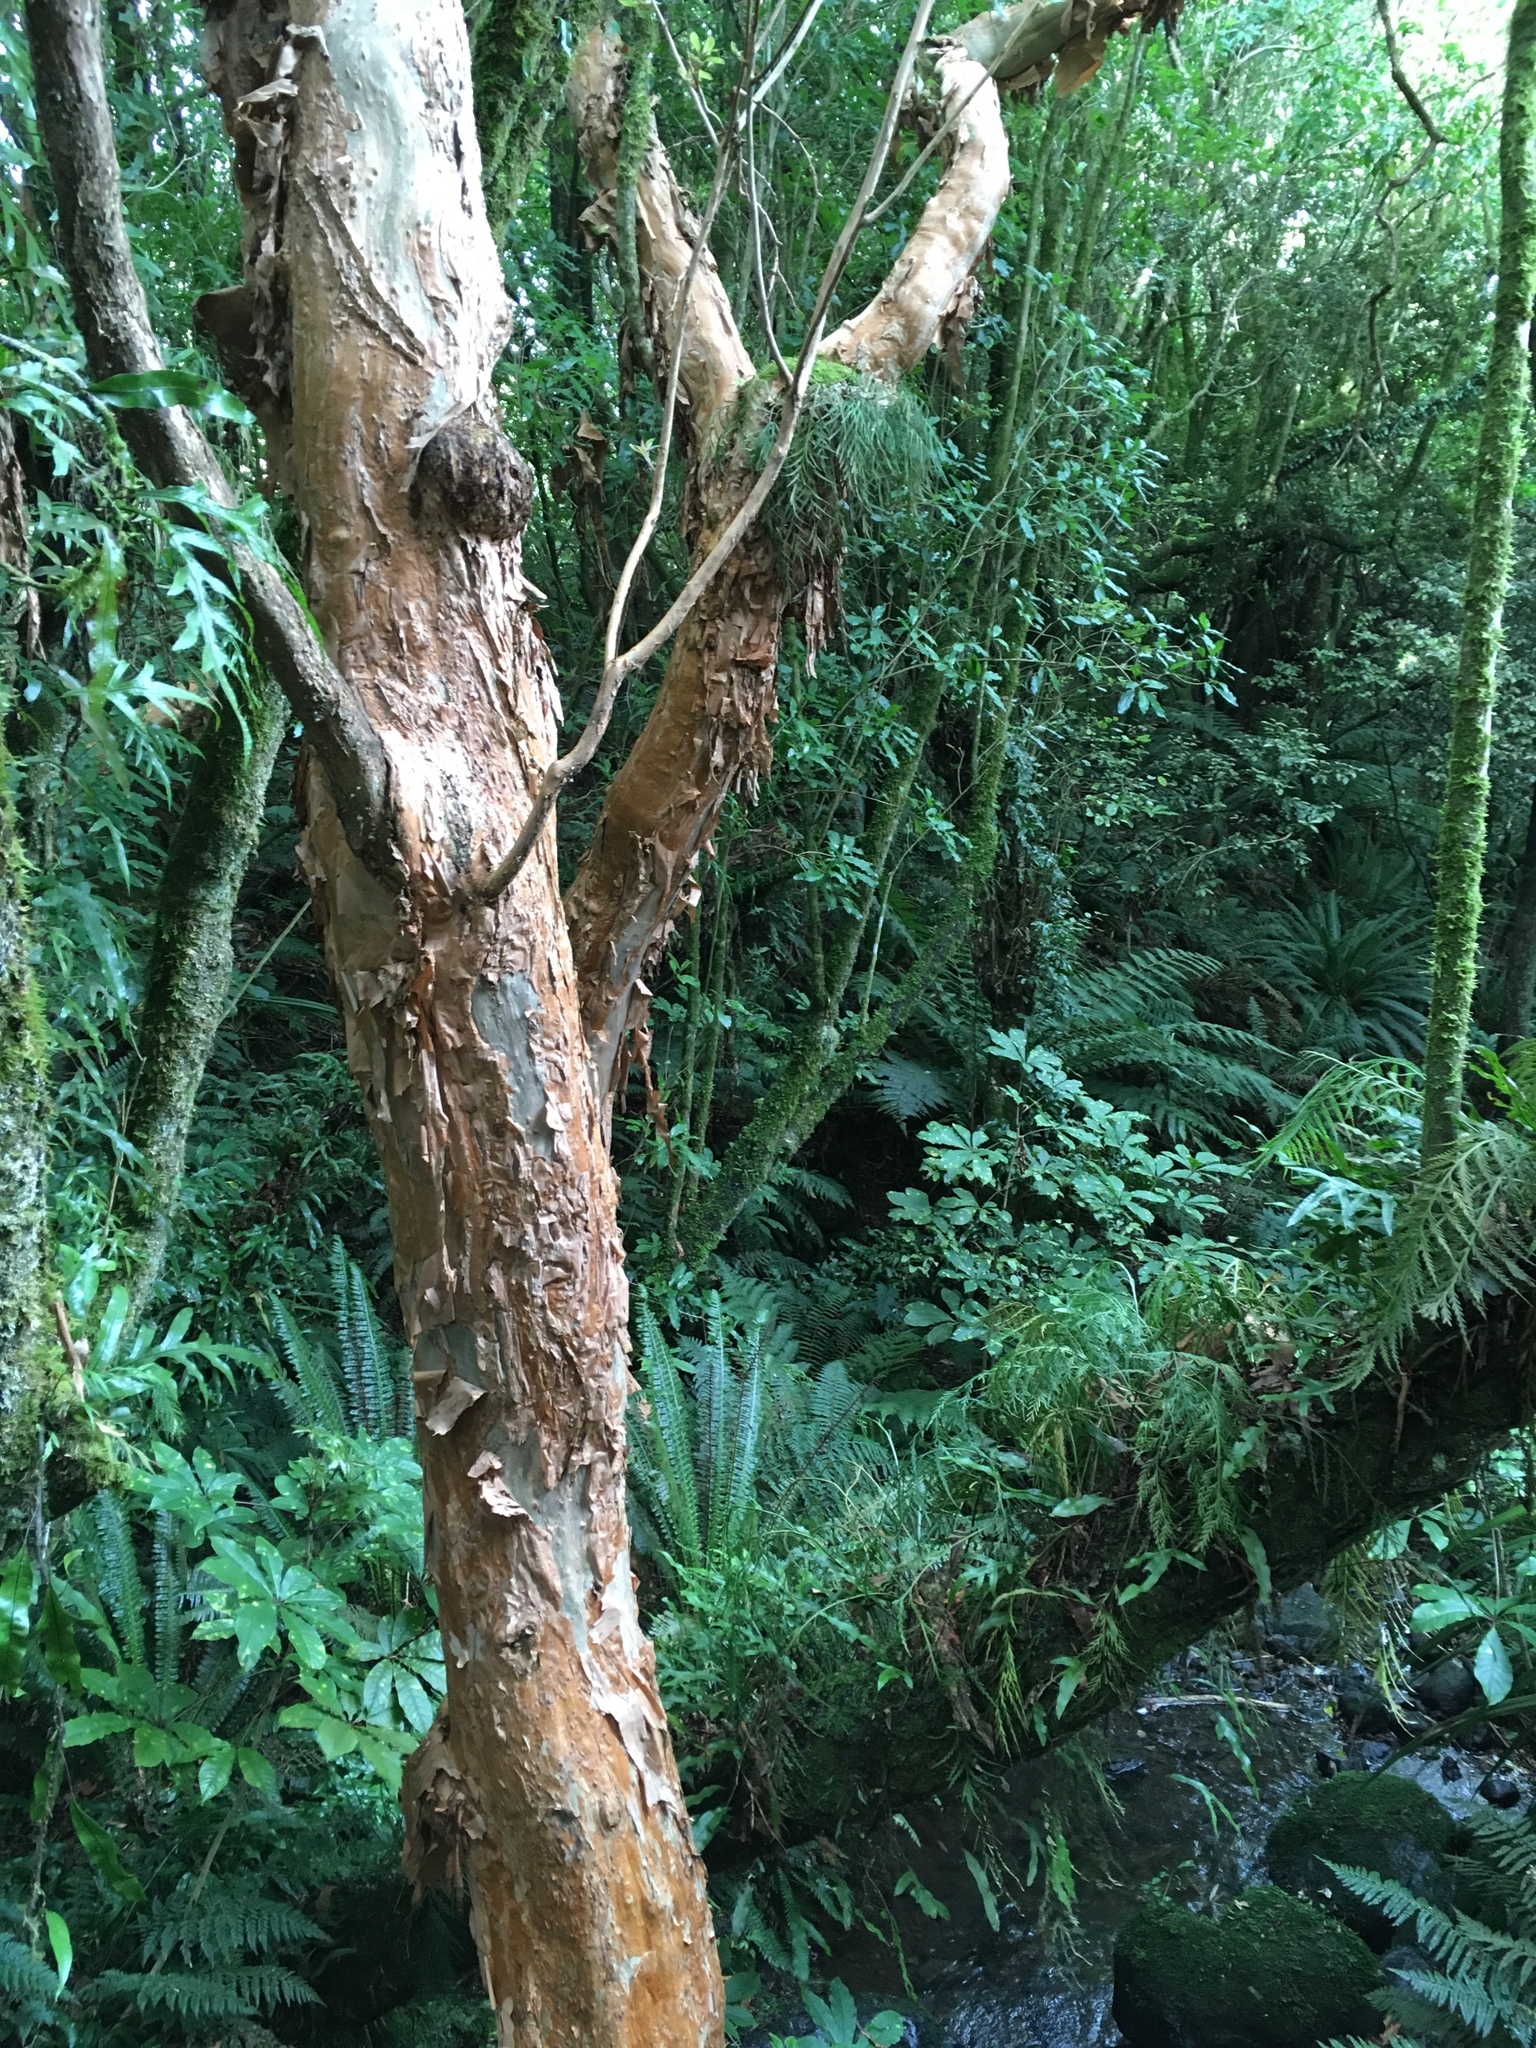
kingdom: Plantae
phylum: Tracheophyta
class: Magnoliopsida
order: Myrtales
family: Onagraceae
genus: Fuchsia
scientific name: Fuchsia excorticata
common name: Tree fuchsia
